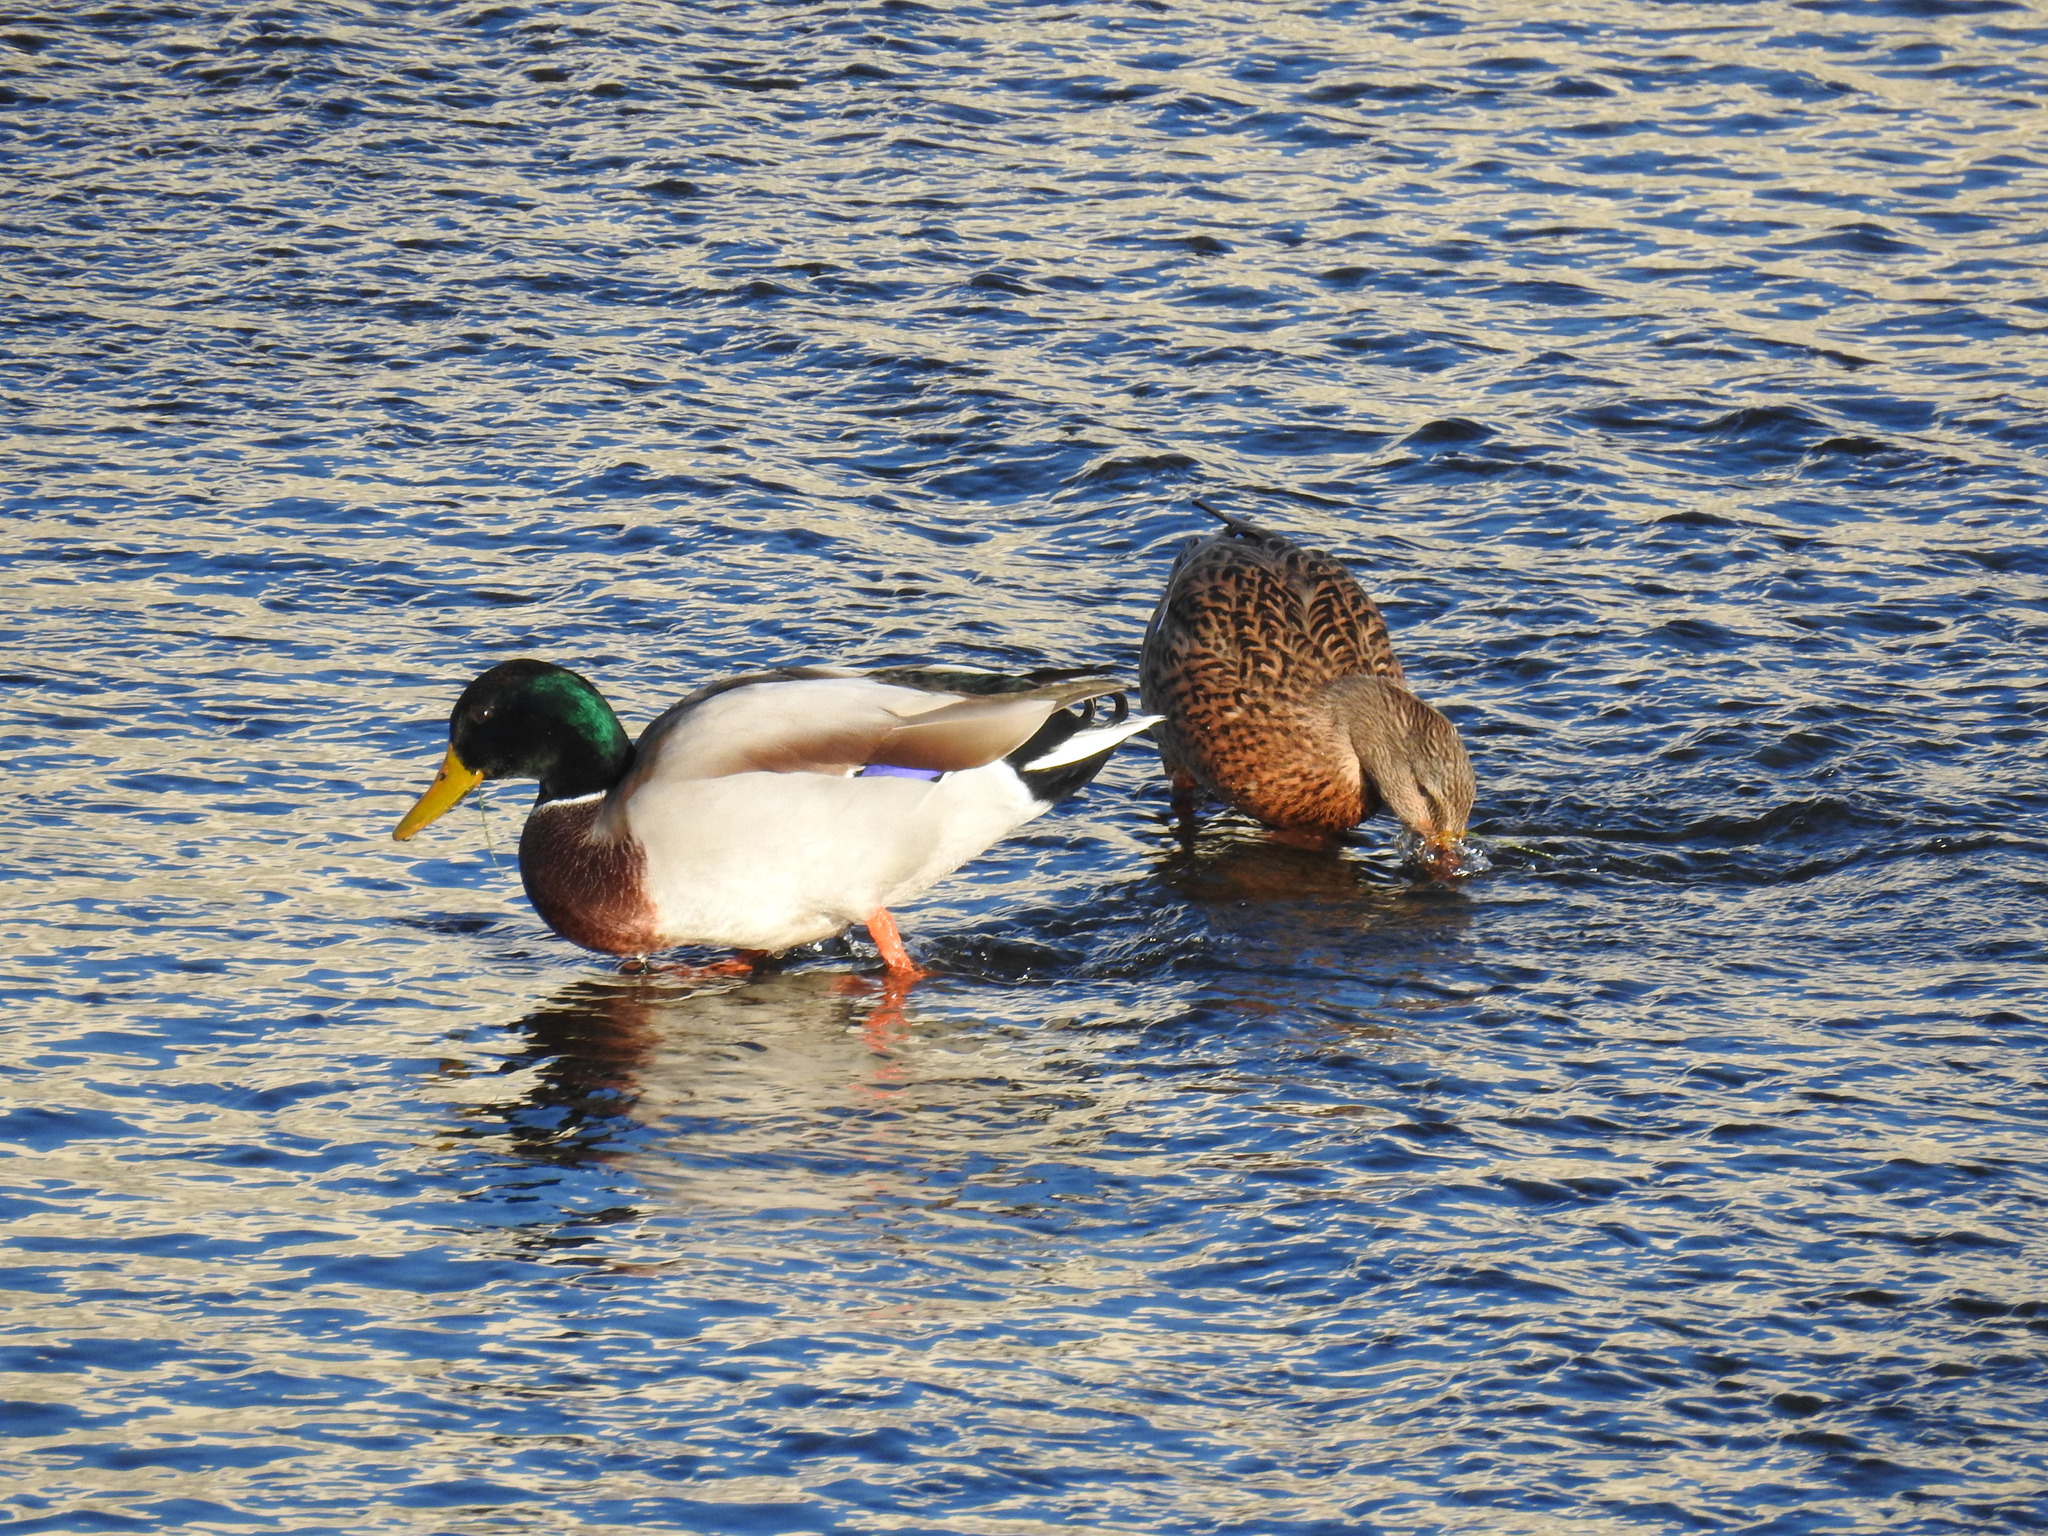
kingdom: Animalia
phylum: Chordata
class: Aves
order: Anseriformes
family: Anatidae
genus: Anas
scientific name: Anas platyrhynchos
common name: Mallard
